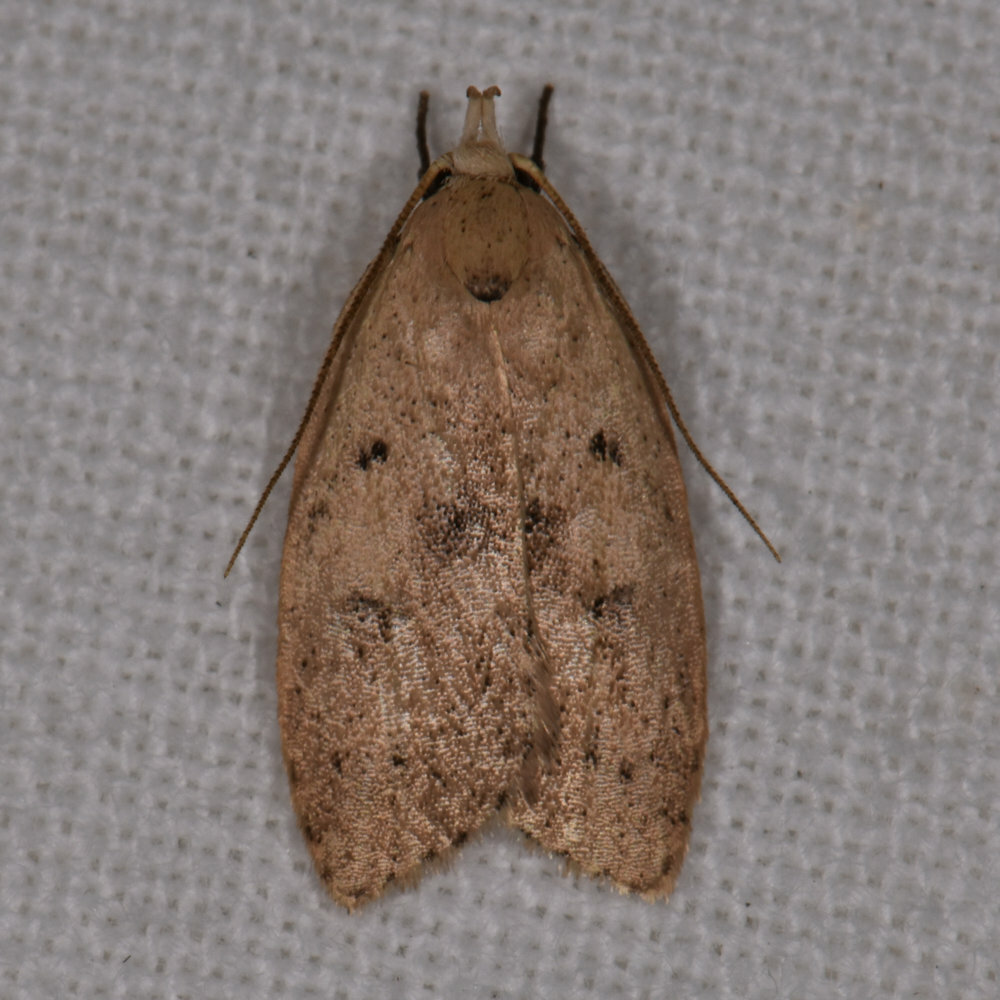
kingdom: Animalia
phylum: Arthropoda
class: Insecta
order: Lepidoptera
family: Peleopodidae
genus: Machimia
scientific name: Machimia tentoriferella
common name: Gold-striped leaftier moth
